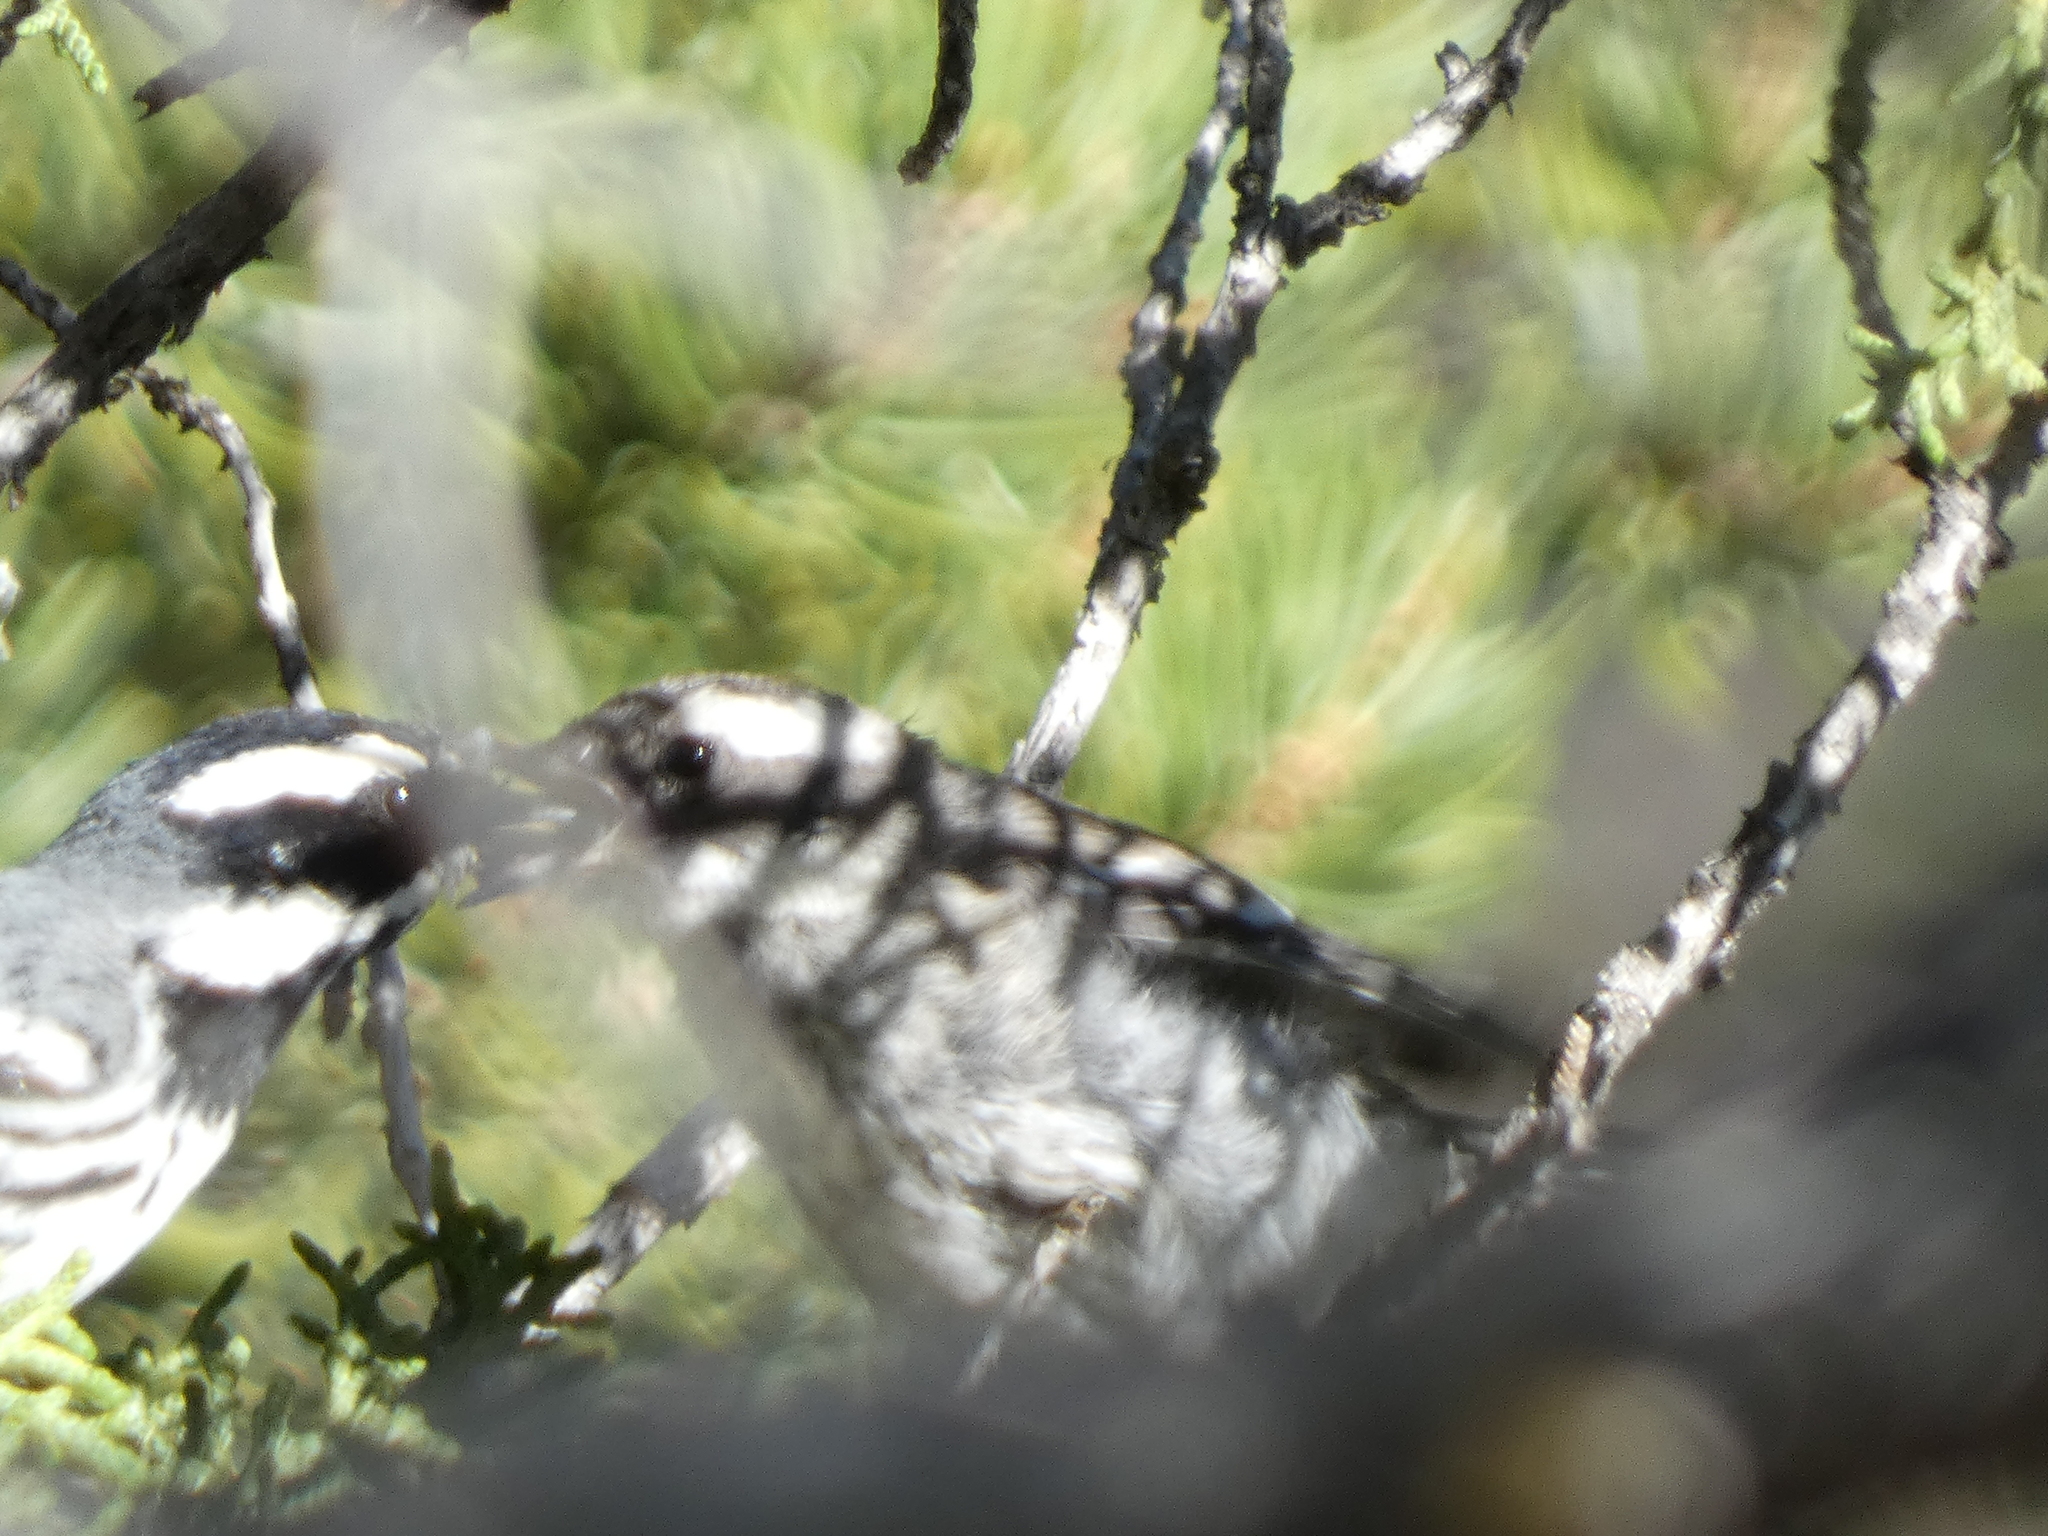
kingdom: Animalia
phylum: Chordata
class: Aves
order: Passeriformes
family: Parulidae
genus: Setophaga
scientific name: Setophaga nigrescens
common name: Black-throated gray warbler
